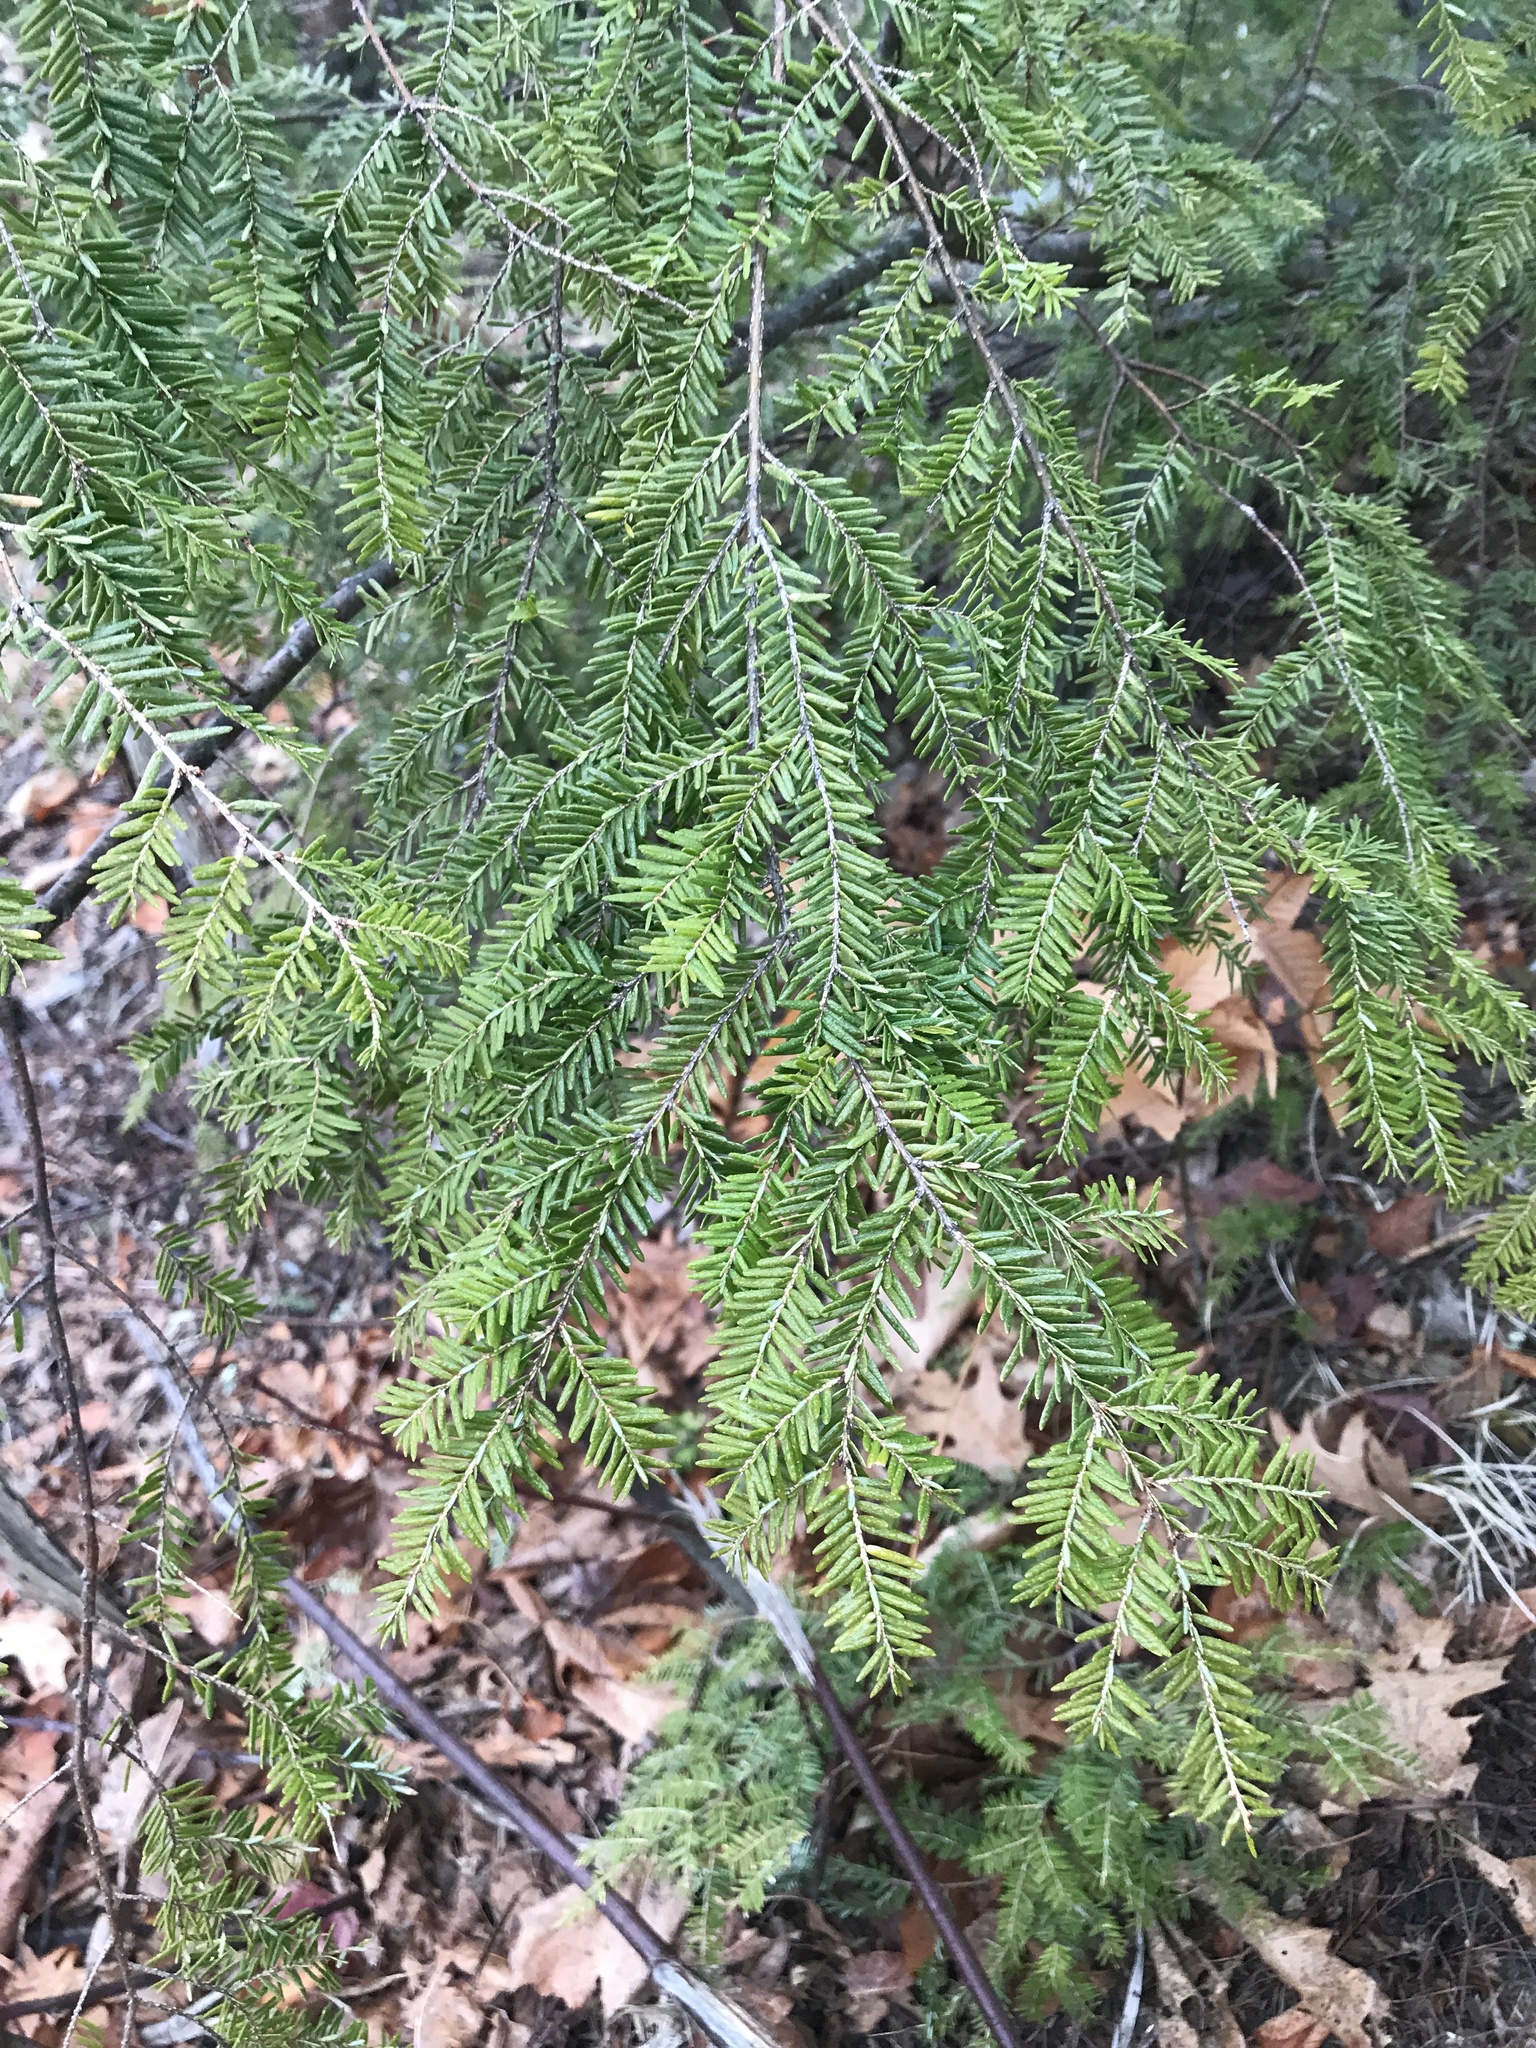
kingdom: Plantae
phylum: Tracheophyta
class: Pinopsida
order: Pinales
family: Pinaceae
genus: Tsuga
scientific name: Tsuga canadensis
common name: Eastern hemlock
